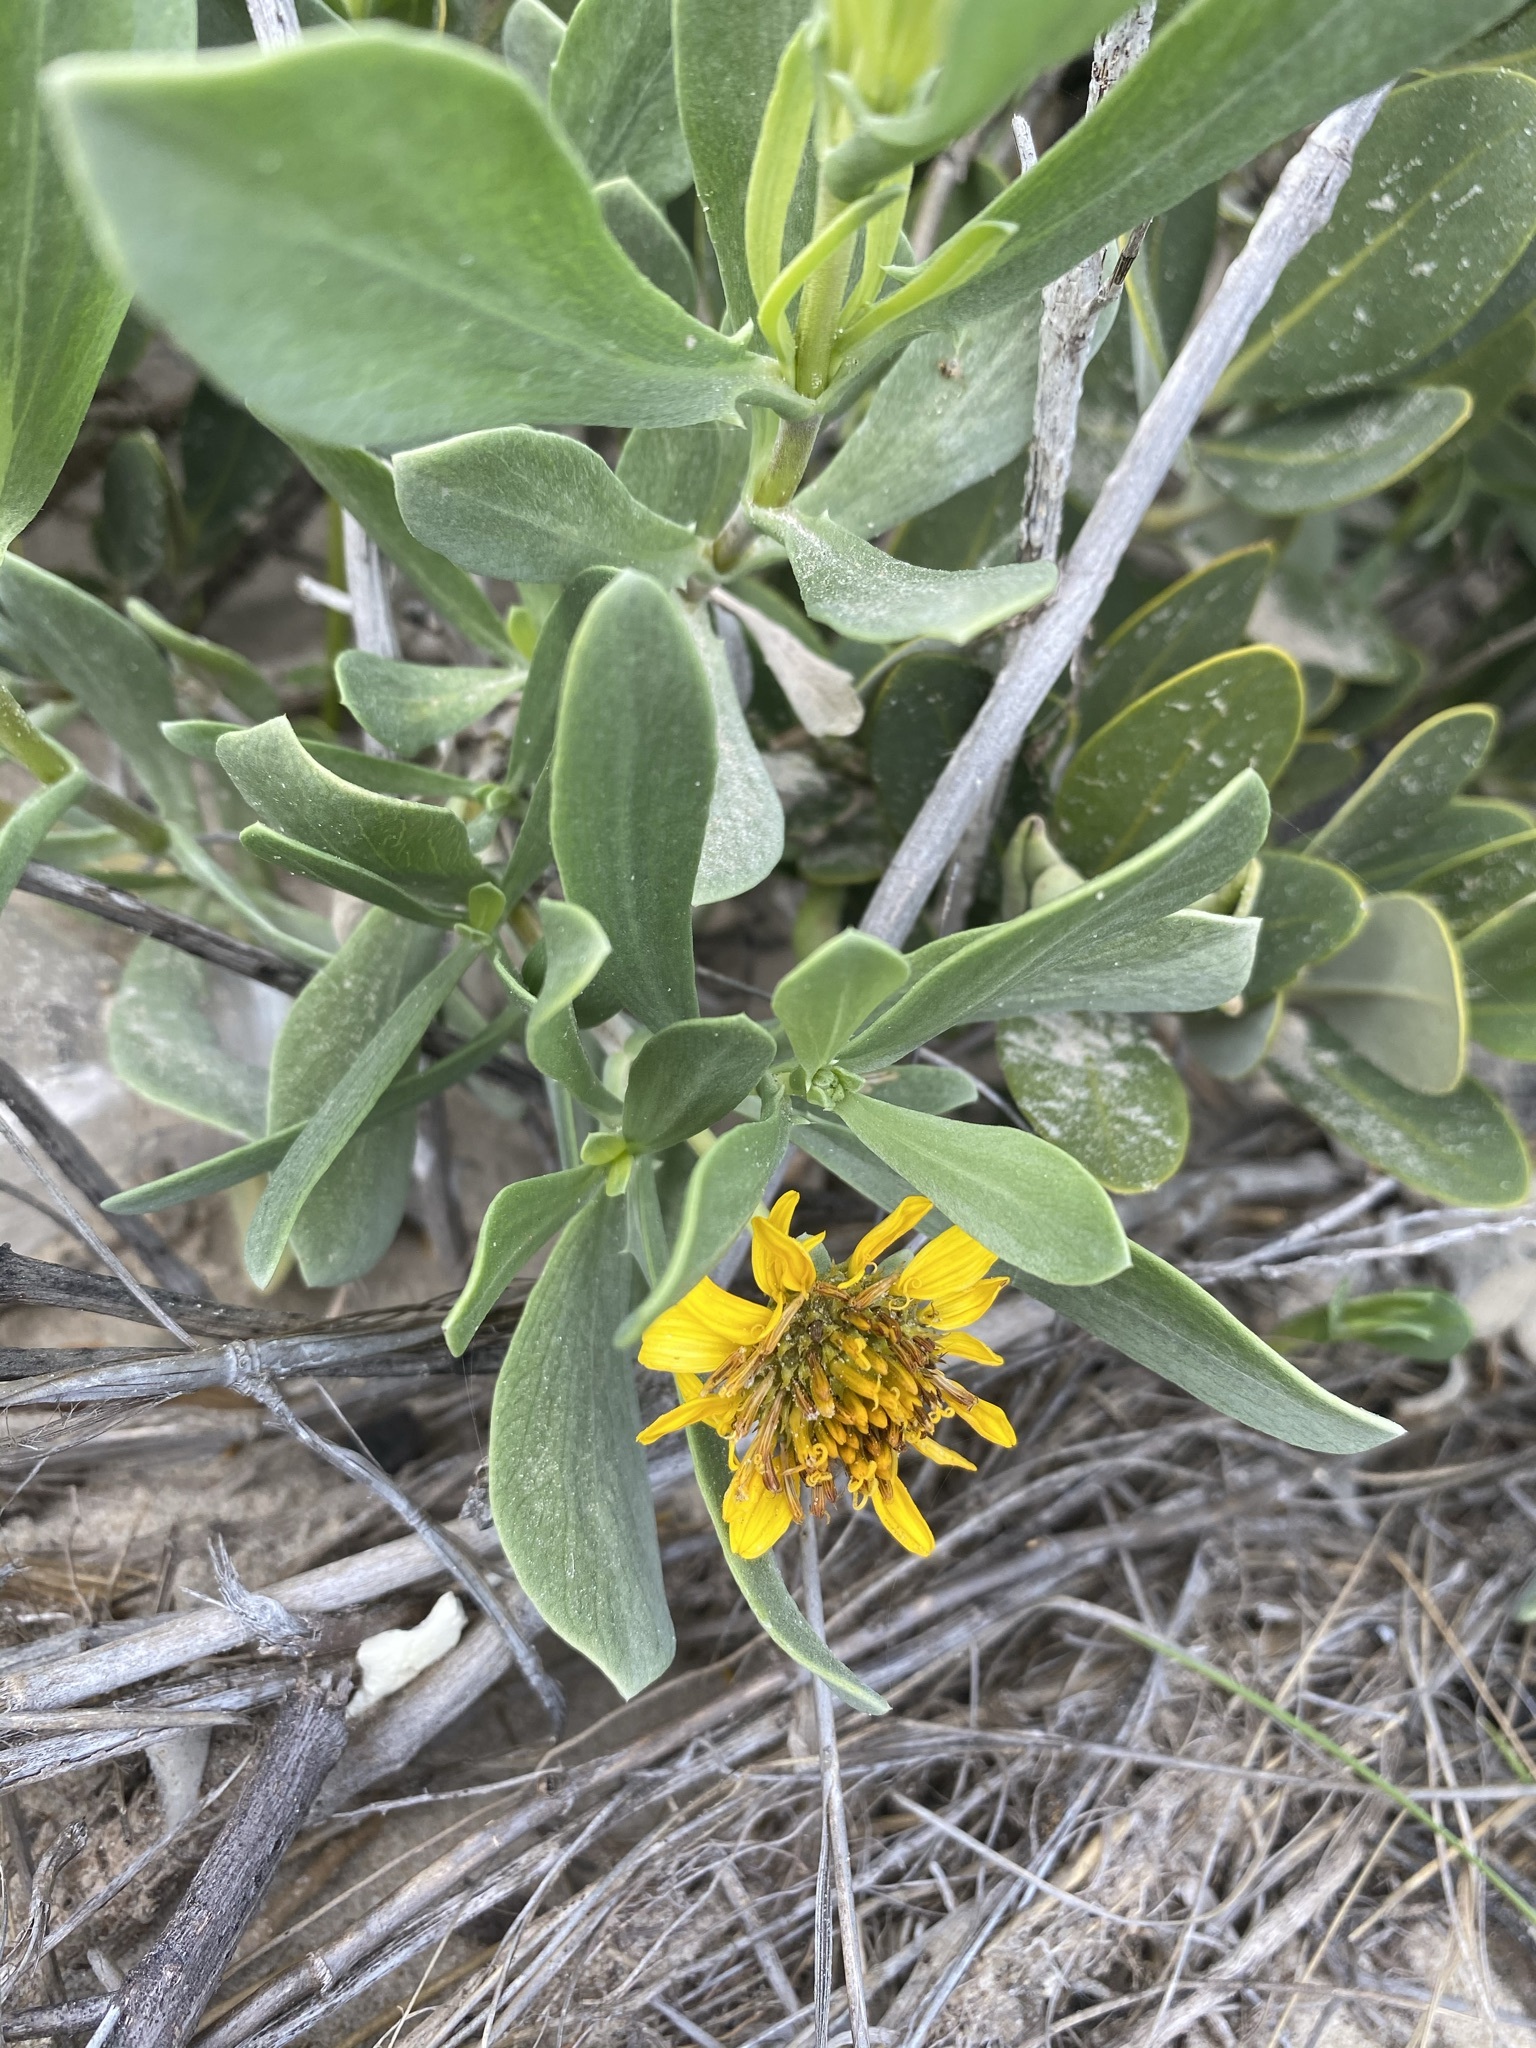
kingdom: Plantae
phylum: Tracheophyta
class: Magnoliopsida
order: Asterales
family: Asteraceae
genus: Borrichia
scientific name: Borrichia frutescens
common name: Sea oxeye
